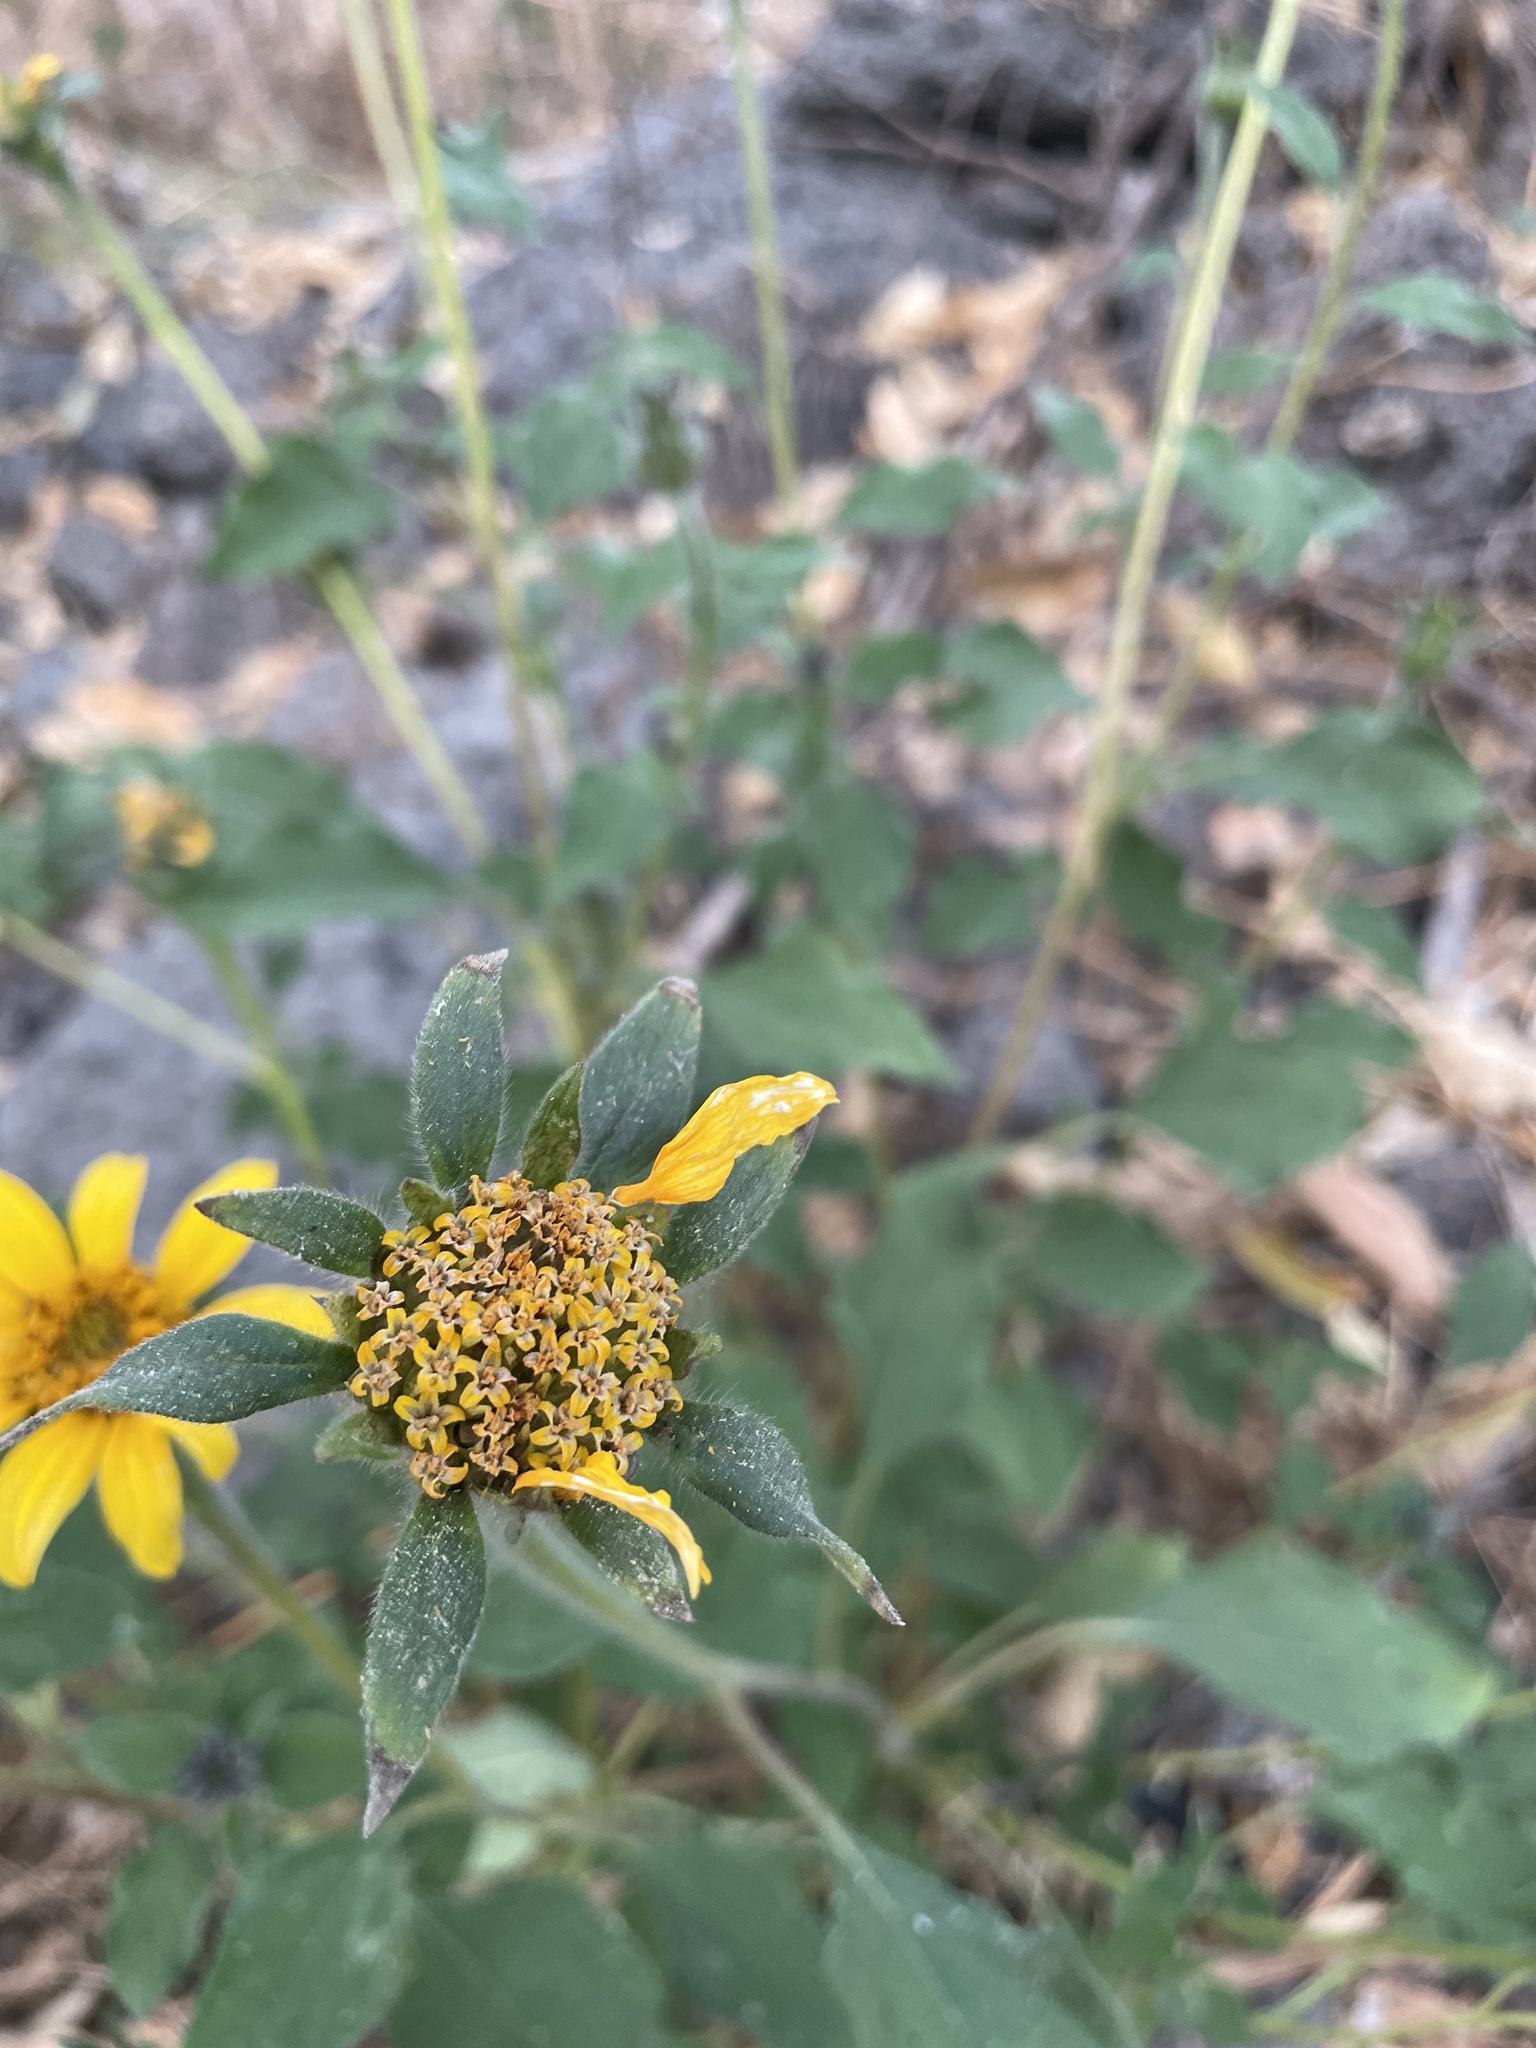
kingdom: Plantae
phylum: Tracheophyta
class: Magnoliopsida
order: Asterales
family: Asteraceae
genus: Tithonia
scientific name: Tithonia tubaeformis
